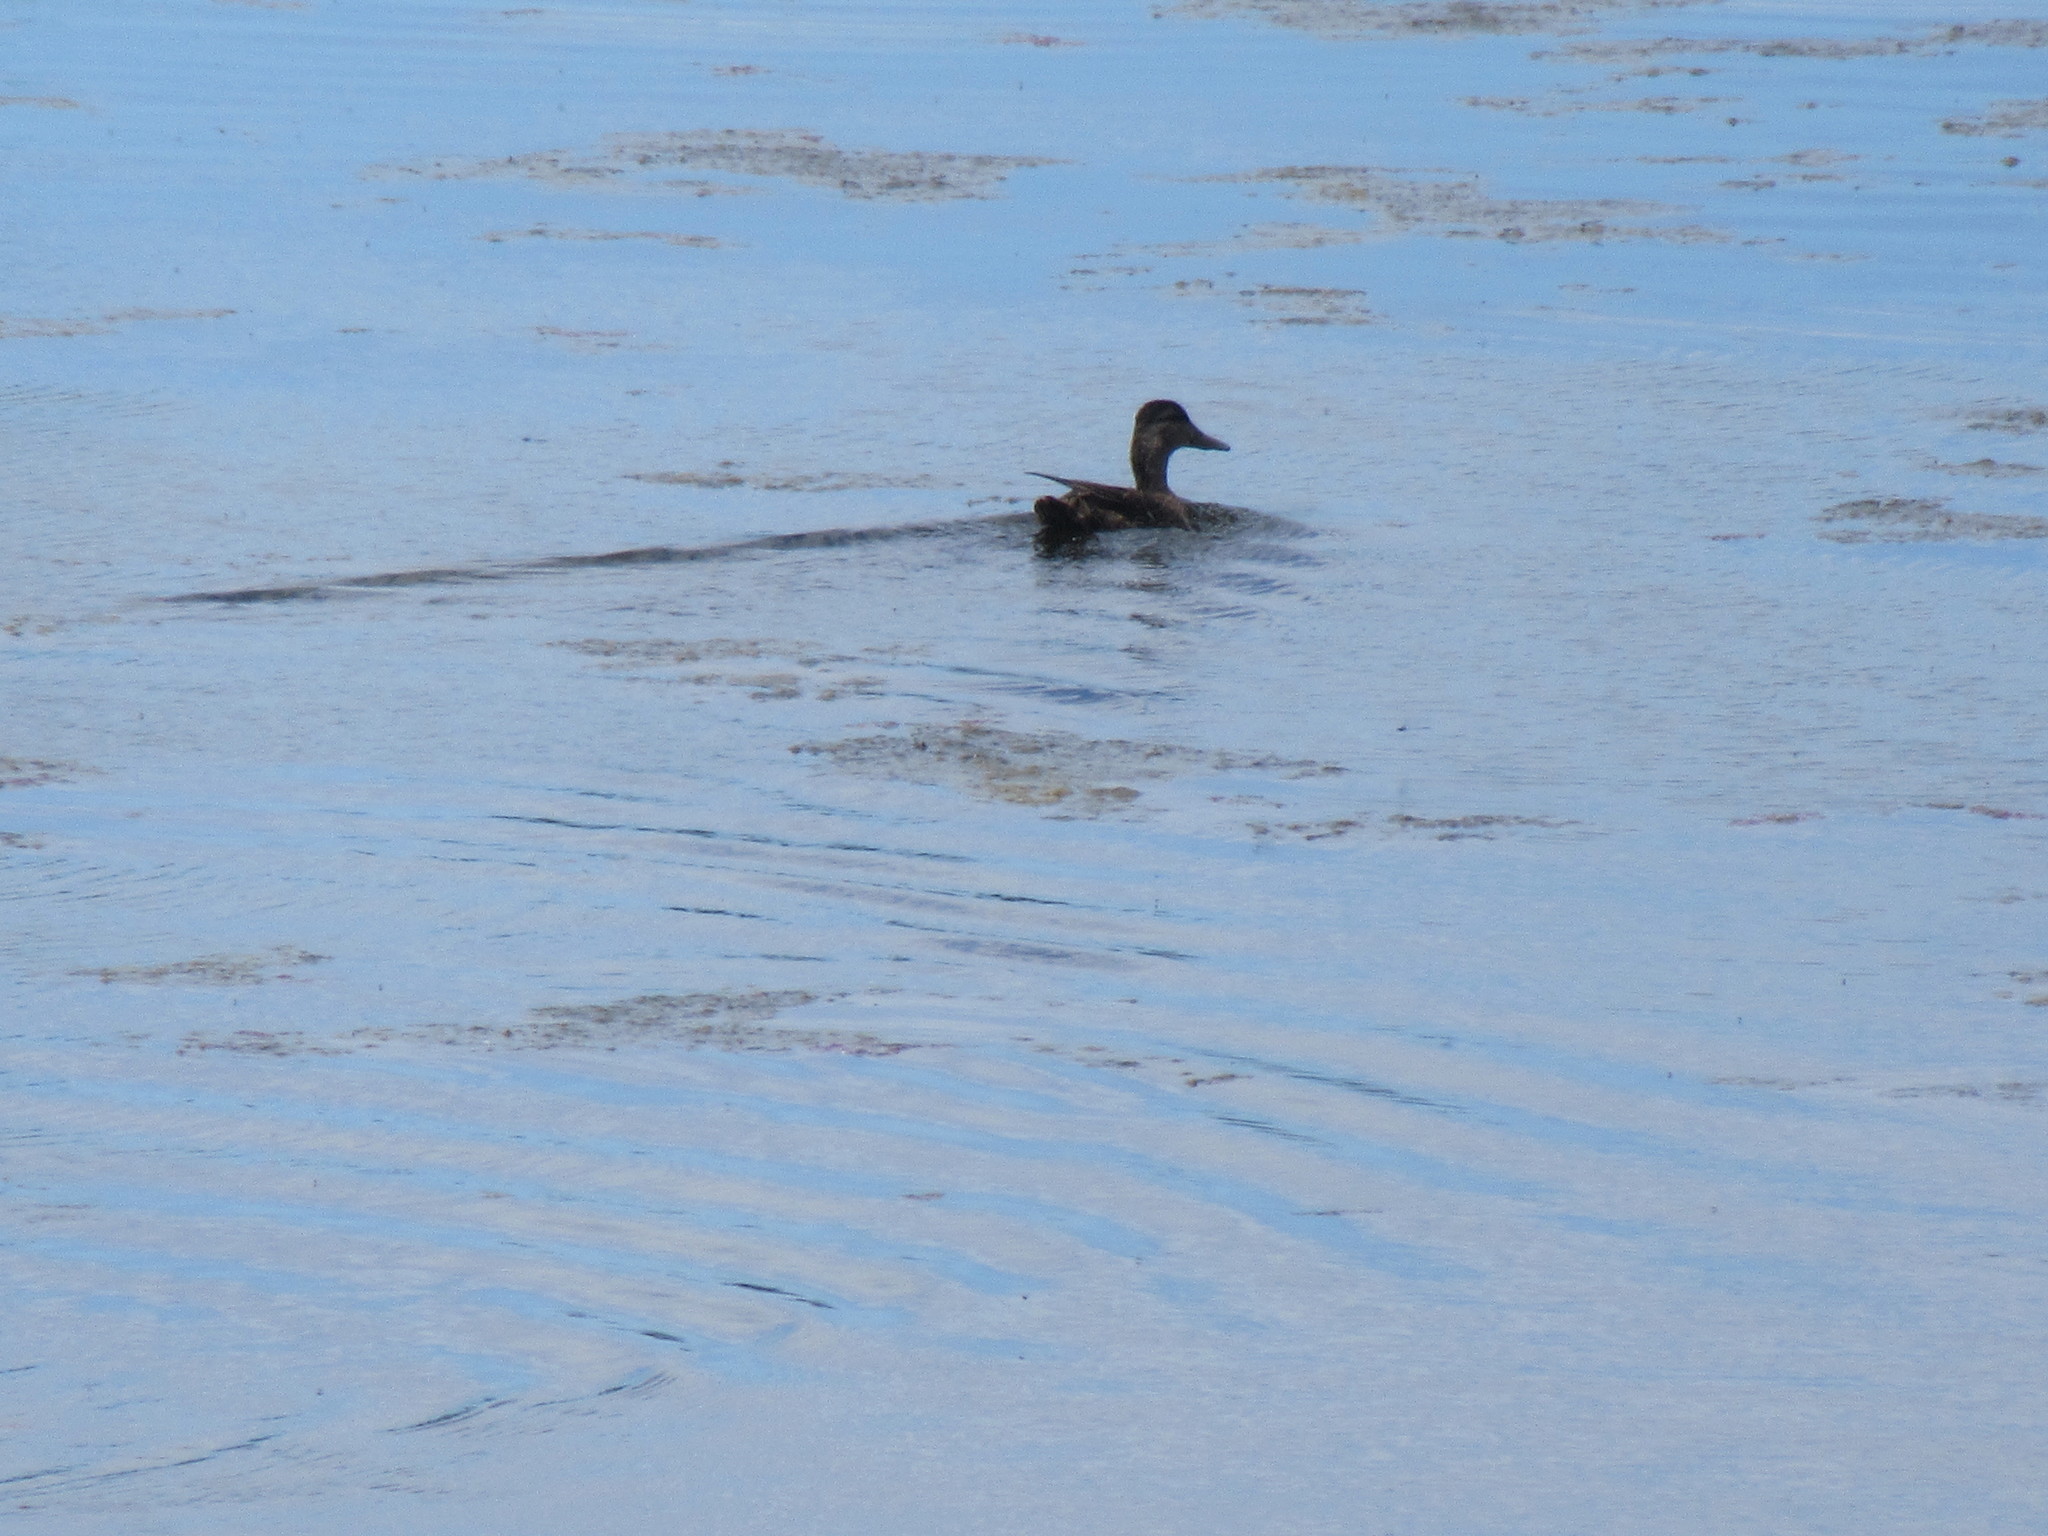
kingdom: Animalia
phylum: Chordata
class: Aves
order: Anseriformes
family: Anatidae
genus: Anas
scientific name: Anas rubripes
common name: American black duck
